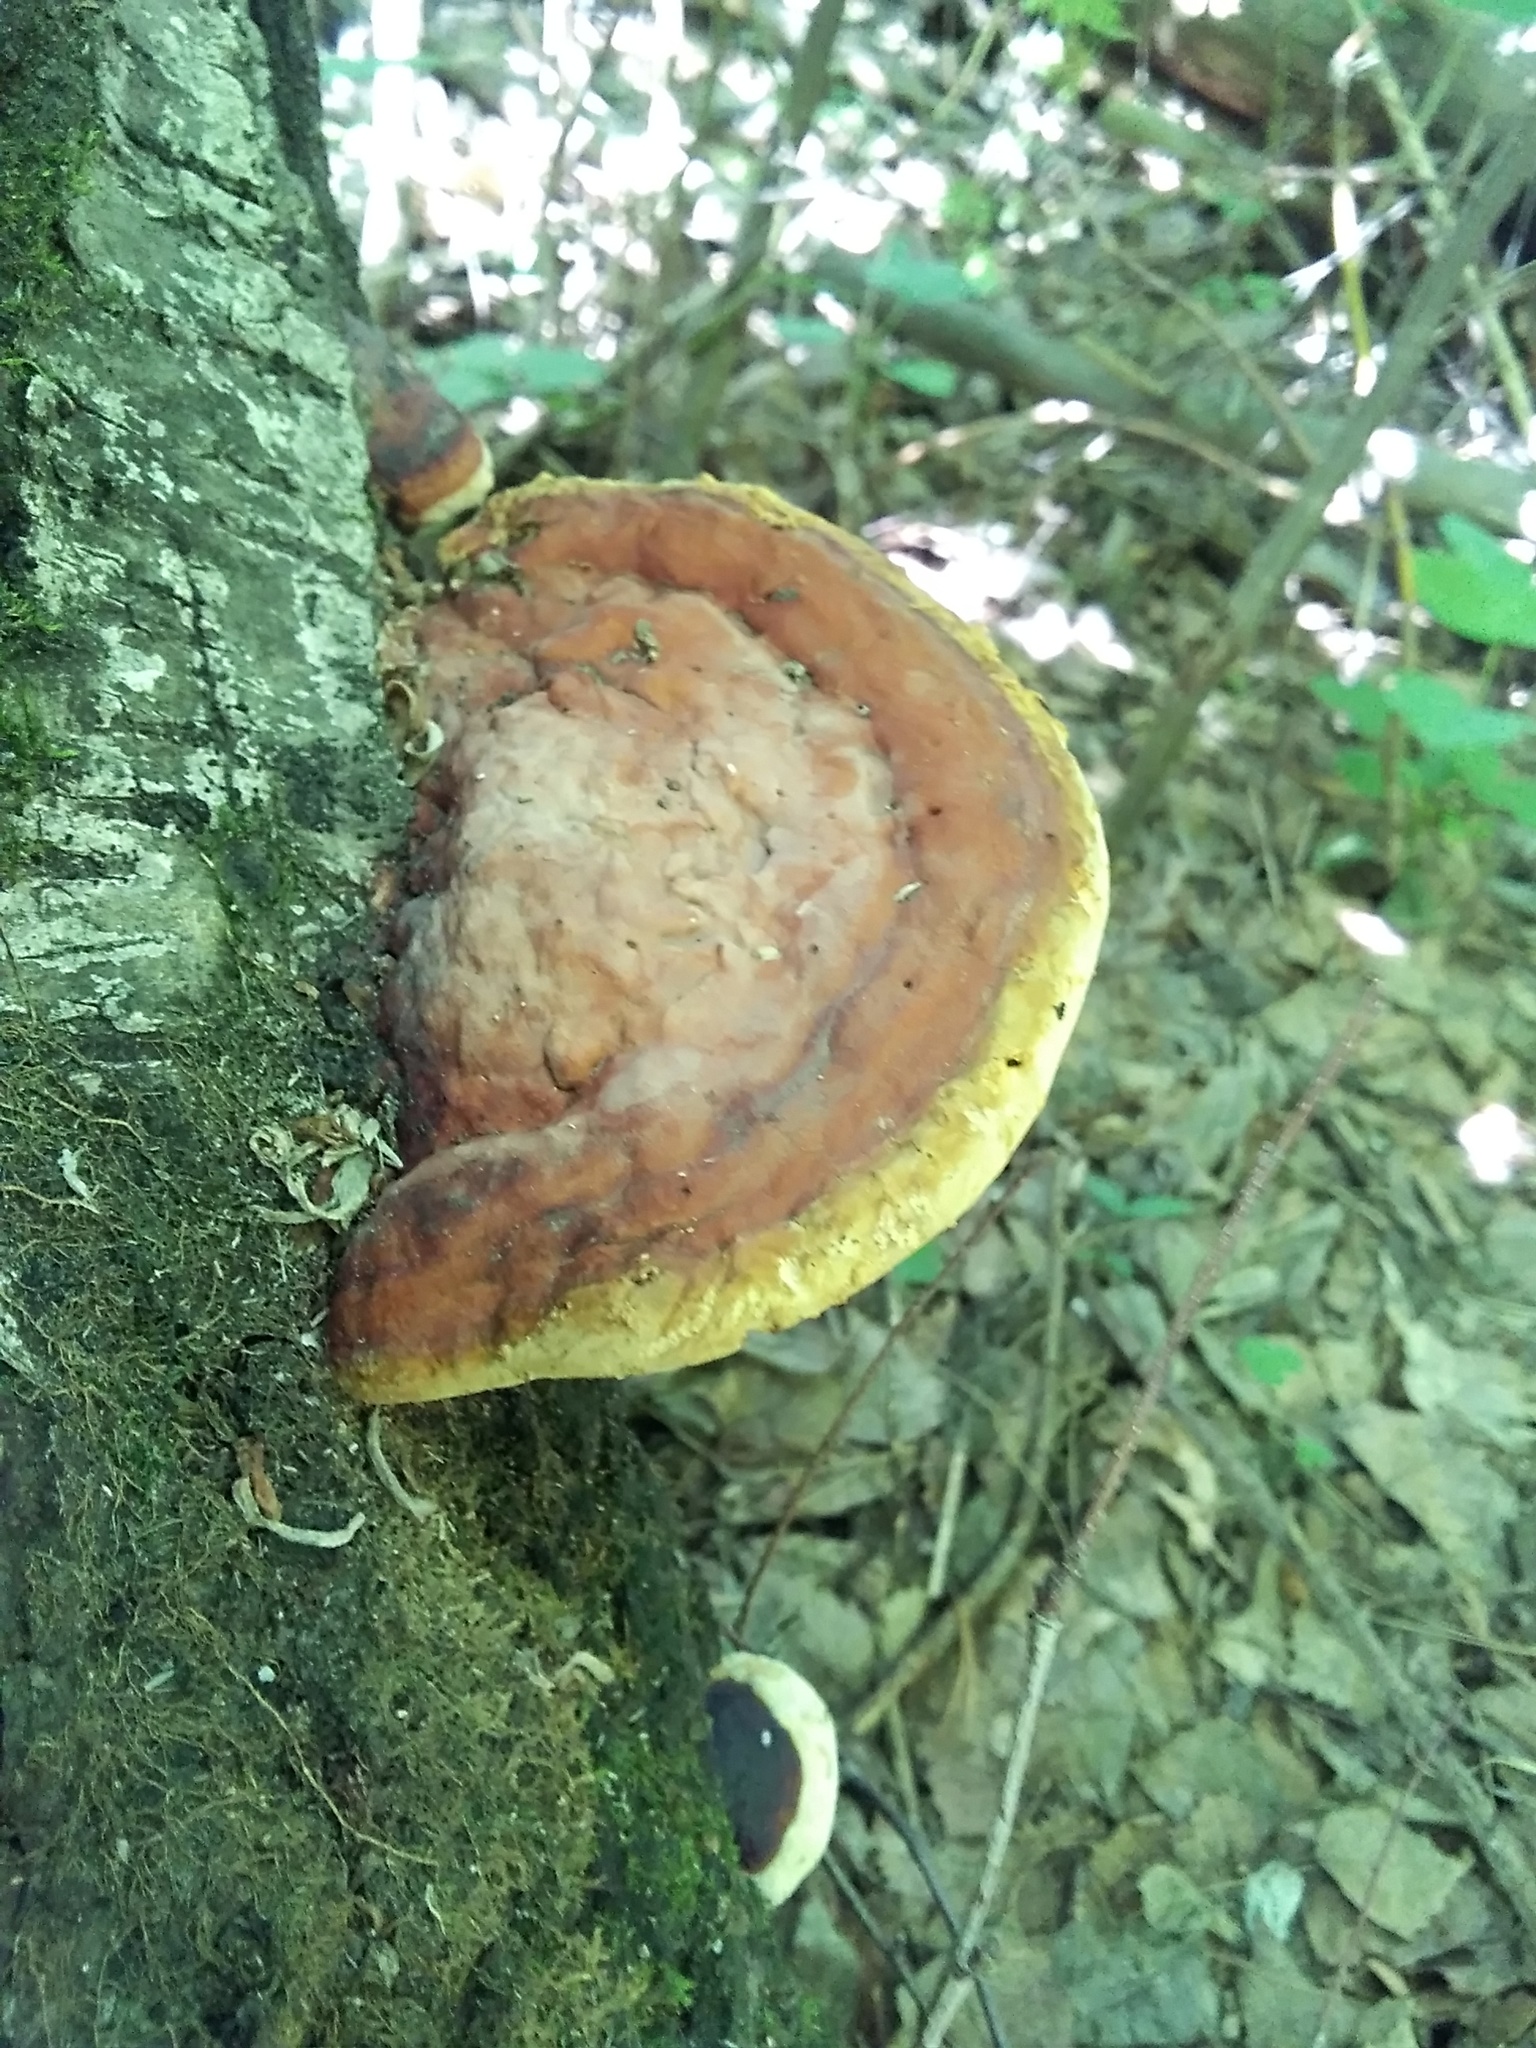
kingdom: Fungi
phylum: Basidiomycota
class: Agaricomycetes
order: Polyporales
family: Fomitopsidaceae
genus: Fomitopsis
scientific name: Fomitopsis pinicola
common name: Red-belted bracket
